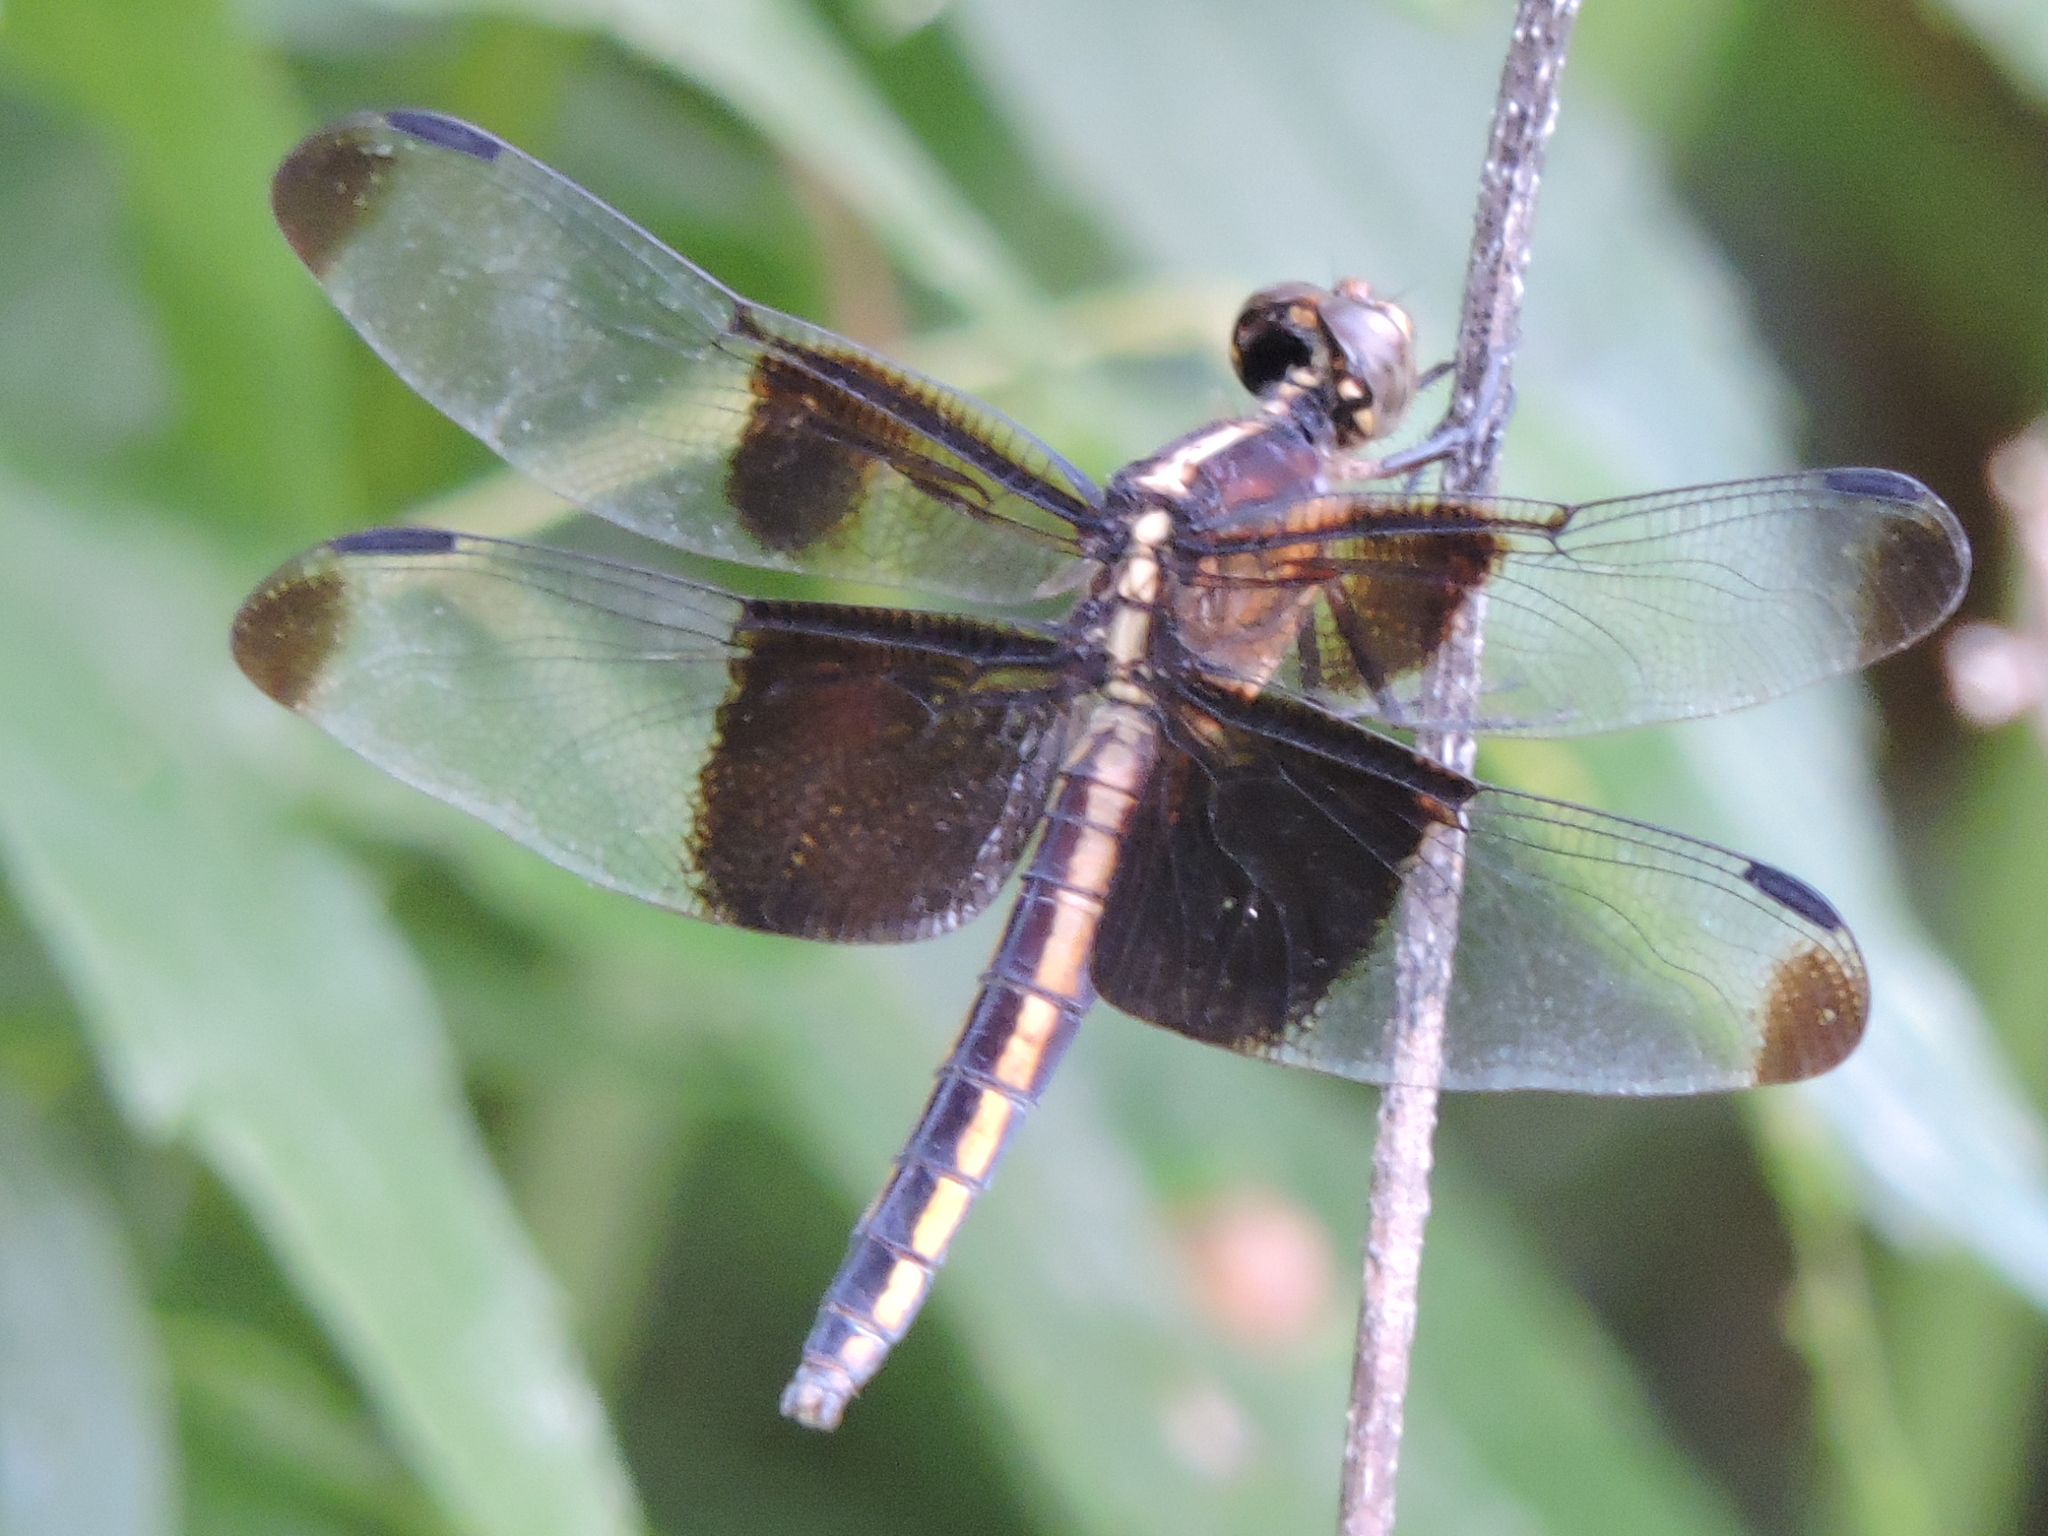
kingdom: Animalia
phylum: Arthropoda
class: Insecta
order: Odonata
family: Libellulidae
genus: Libellula
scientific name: Libellula luctuosa
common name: Widow skimmer
